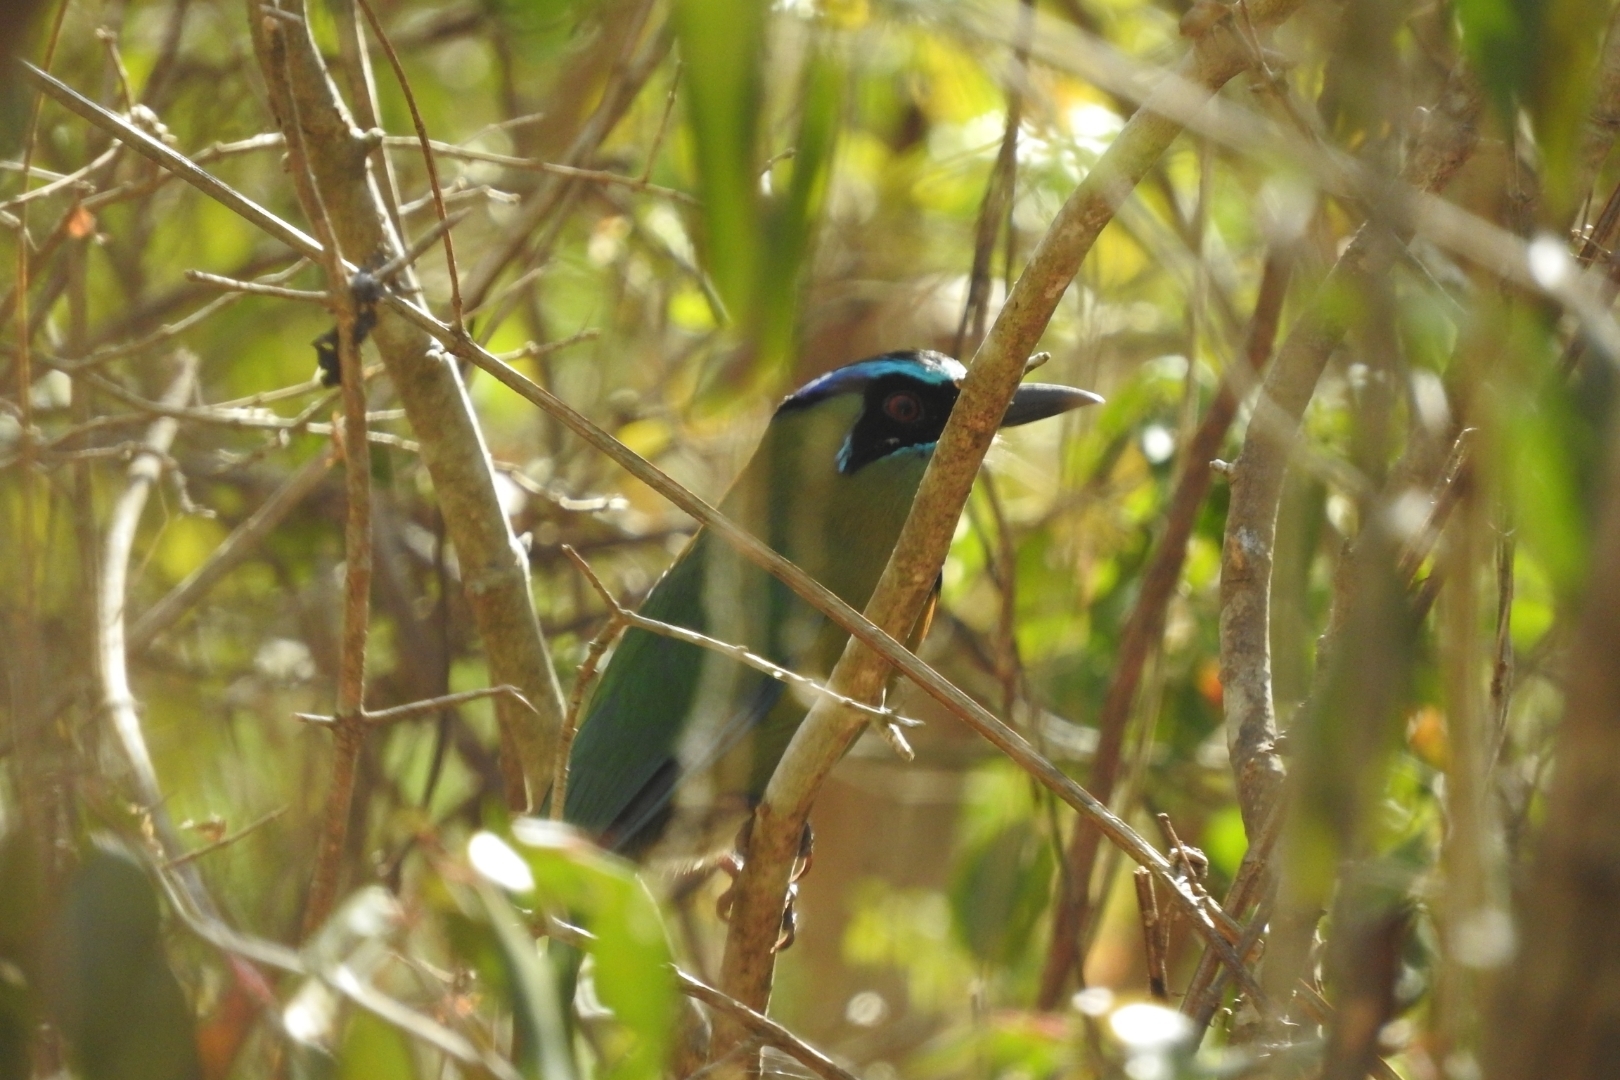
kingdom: Animalia
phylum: Chordata
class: Aves
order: Coraciiformes
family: Momotidae
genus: Momotus
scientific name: Momotus lessonii
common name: Lesson's motmot
